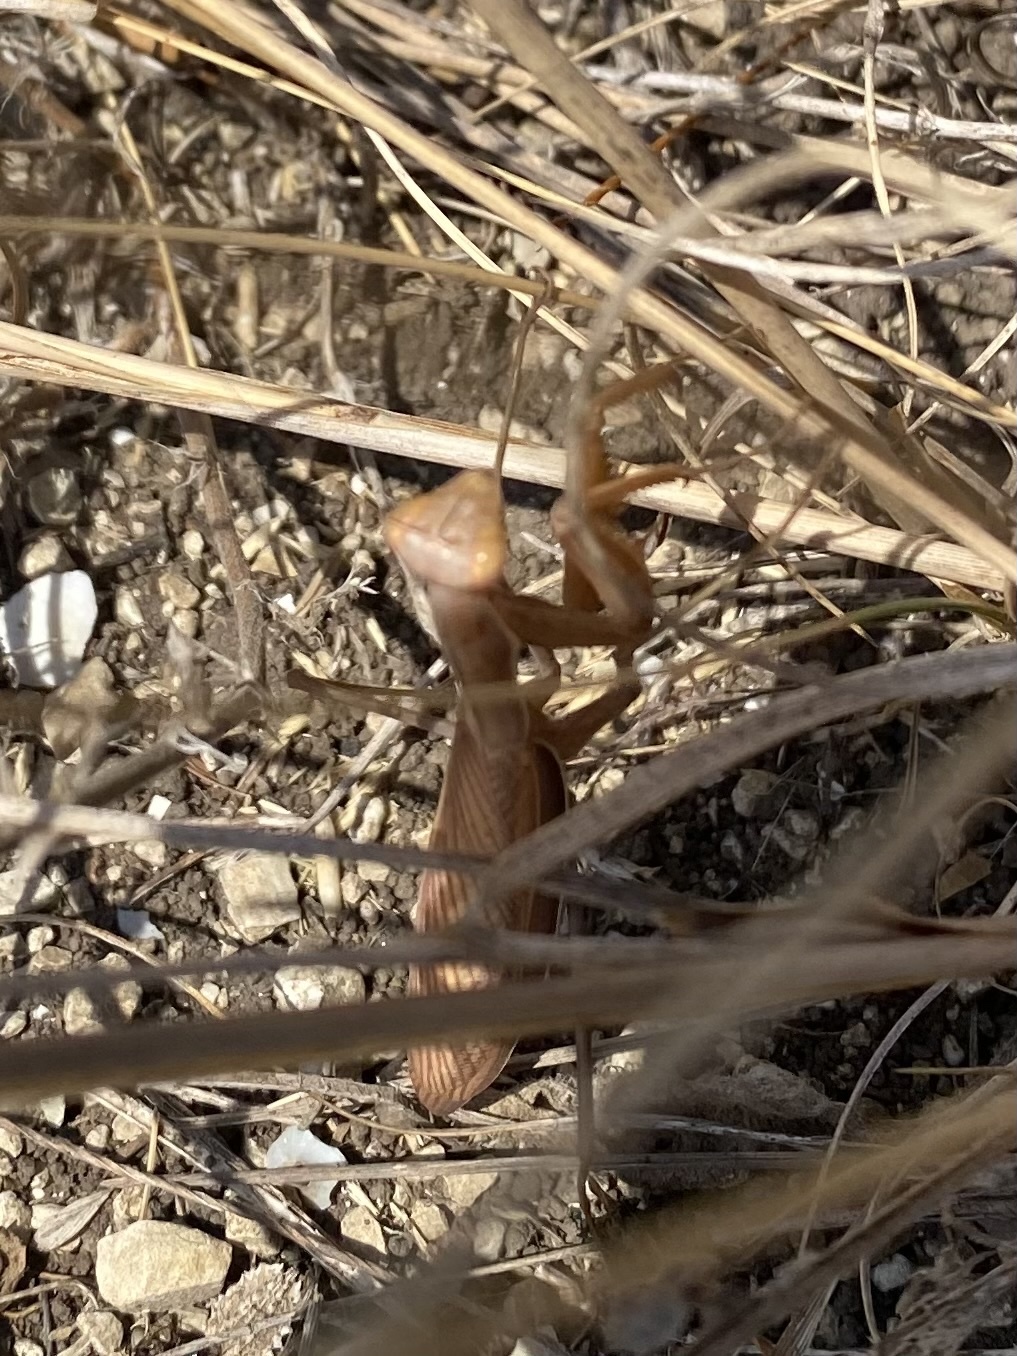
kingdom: Animalia
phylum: Arthropoda
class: Insecta
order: Mantodea
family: Mantidae
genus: Mantis
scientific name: Mantis religiosa
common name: Praying mantis
